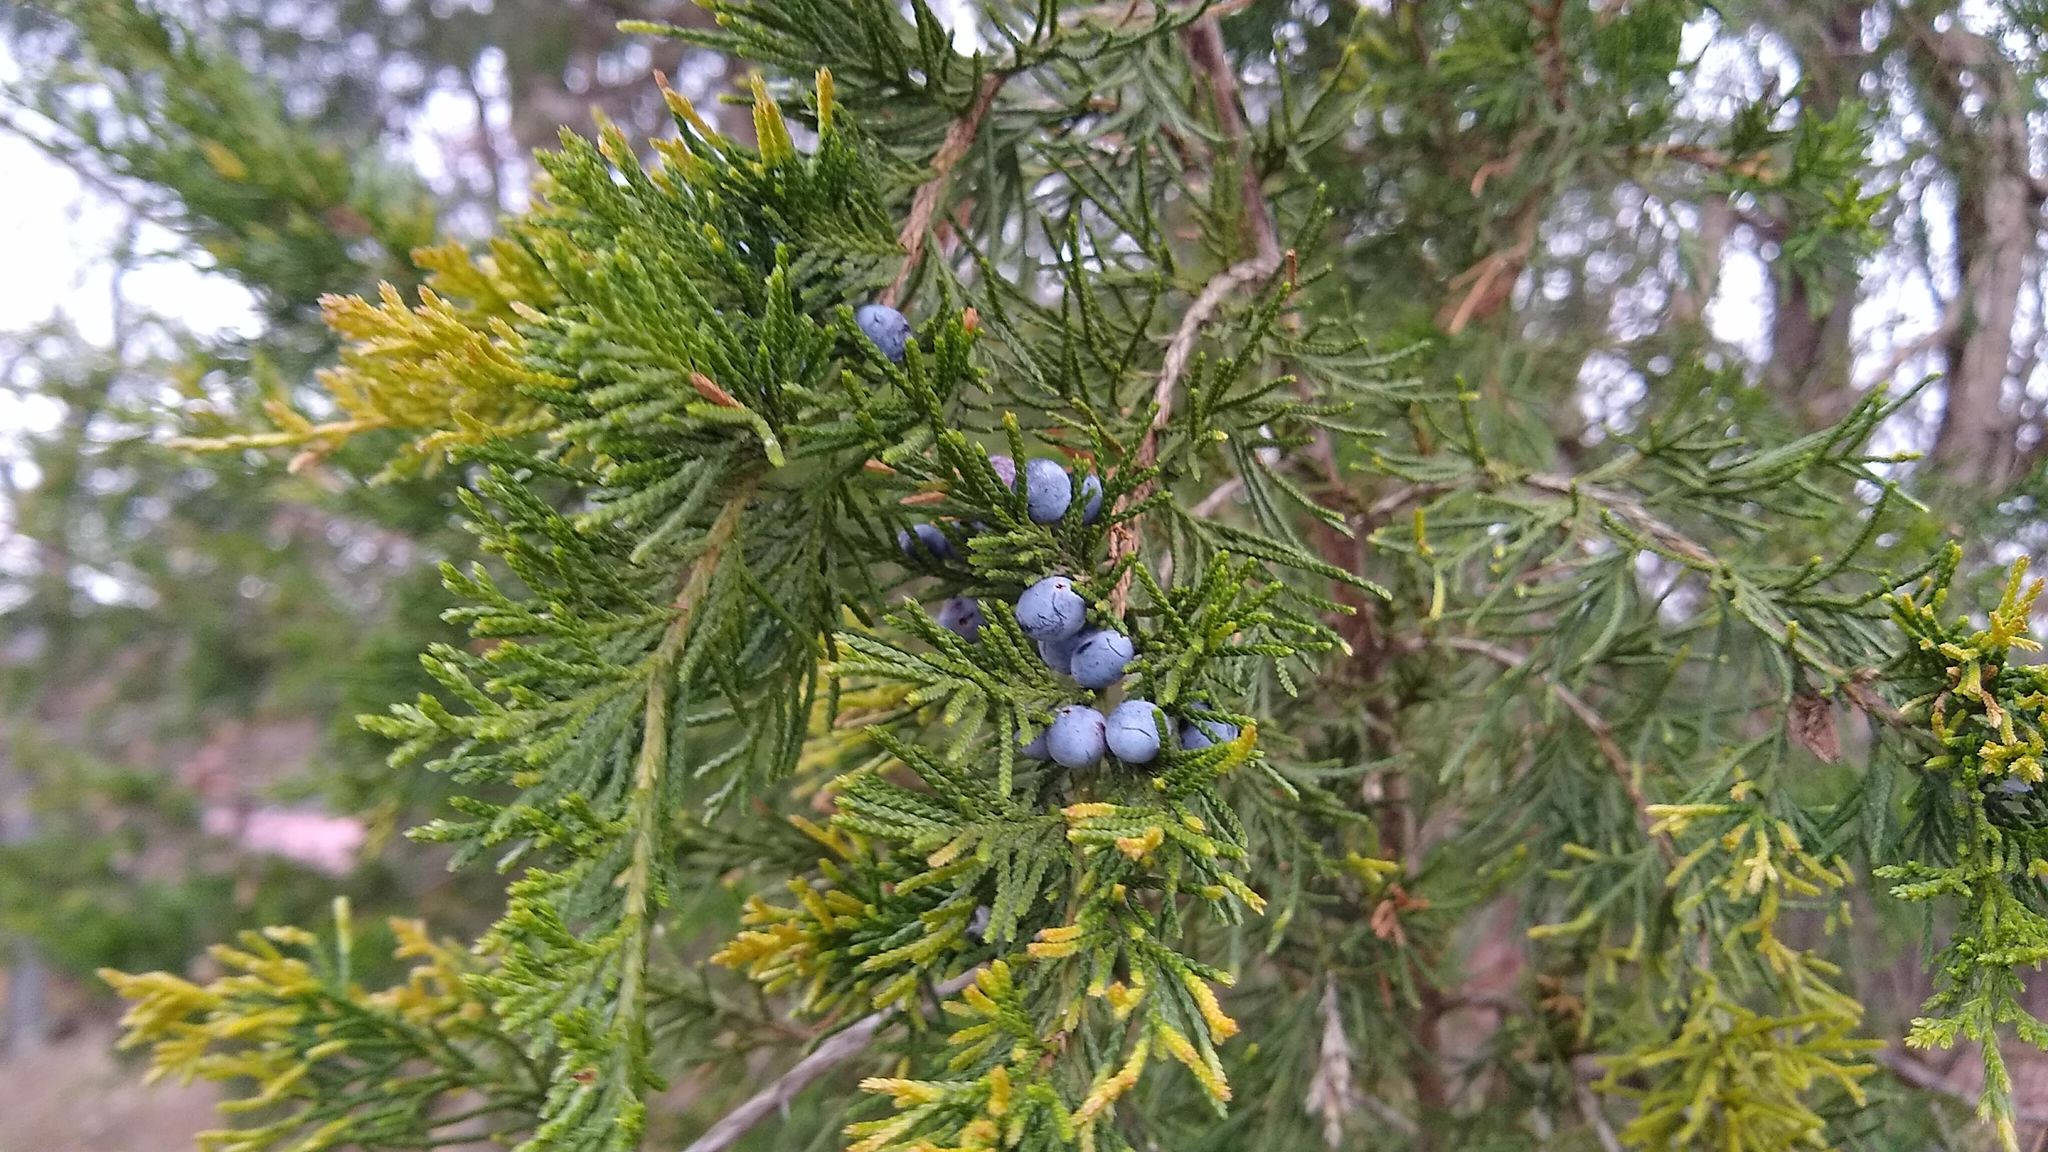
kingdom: Plantae
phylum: Tracheophyta
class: Pinopsida
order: Pinales
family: Cupressaceae
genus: Juniperus
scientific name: Juniperus virginiana
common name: Red juniper
